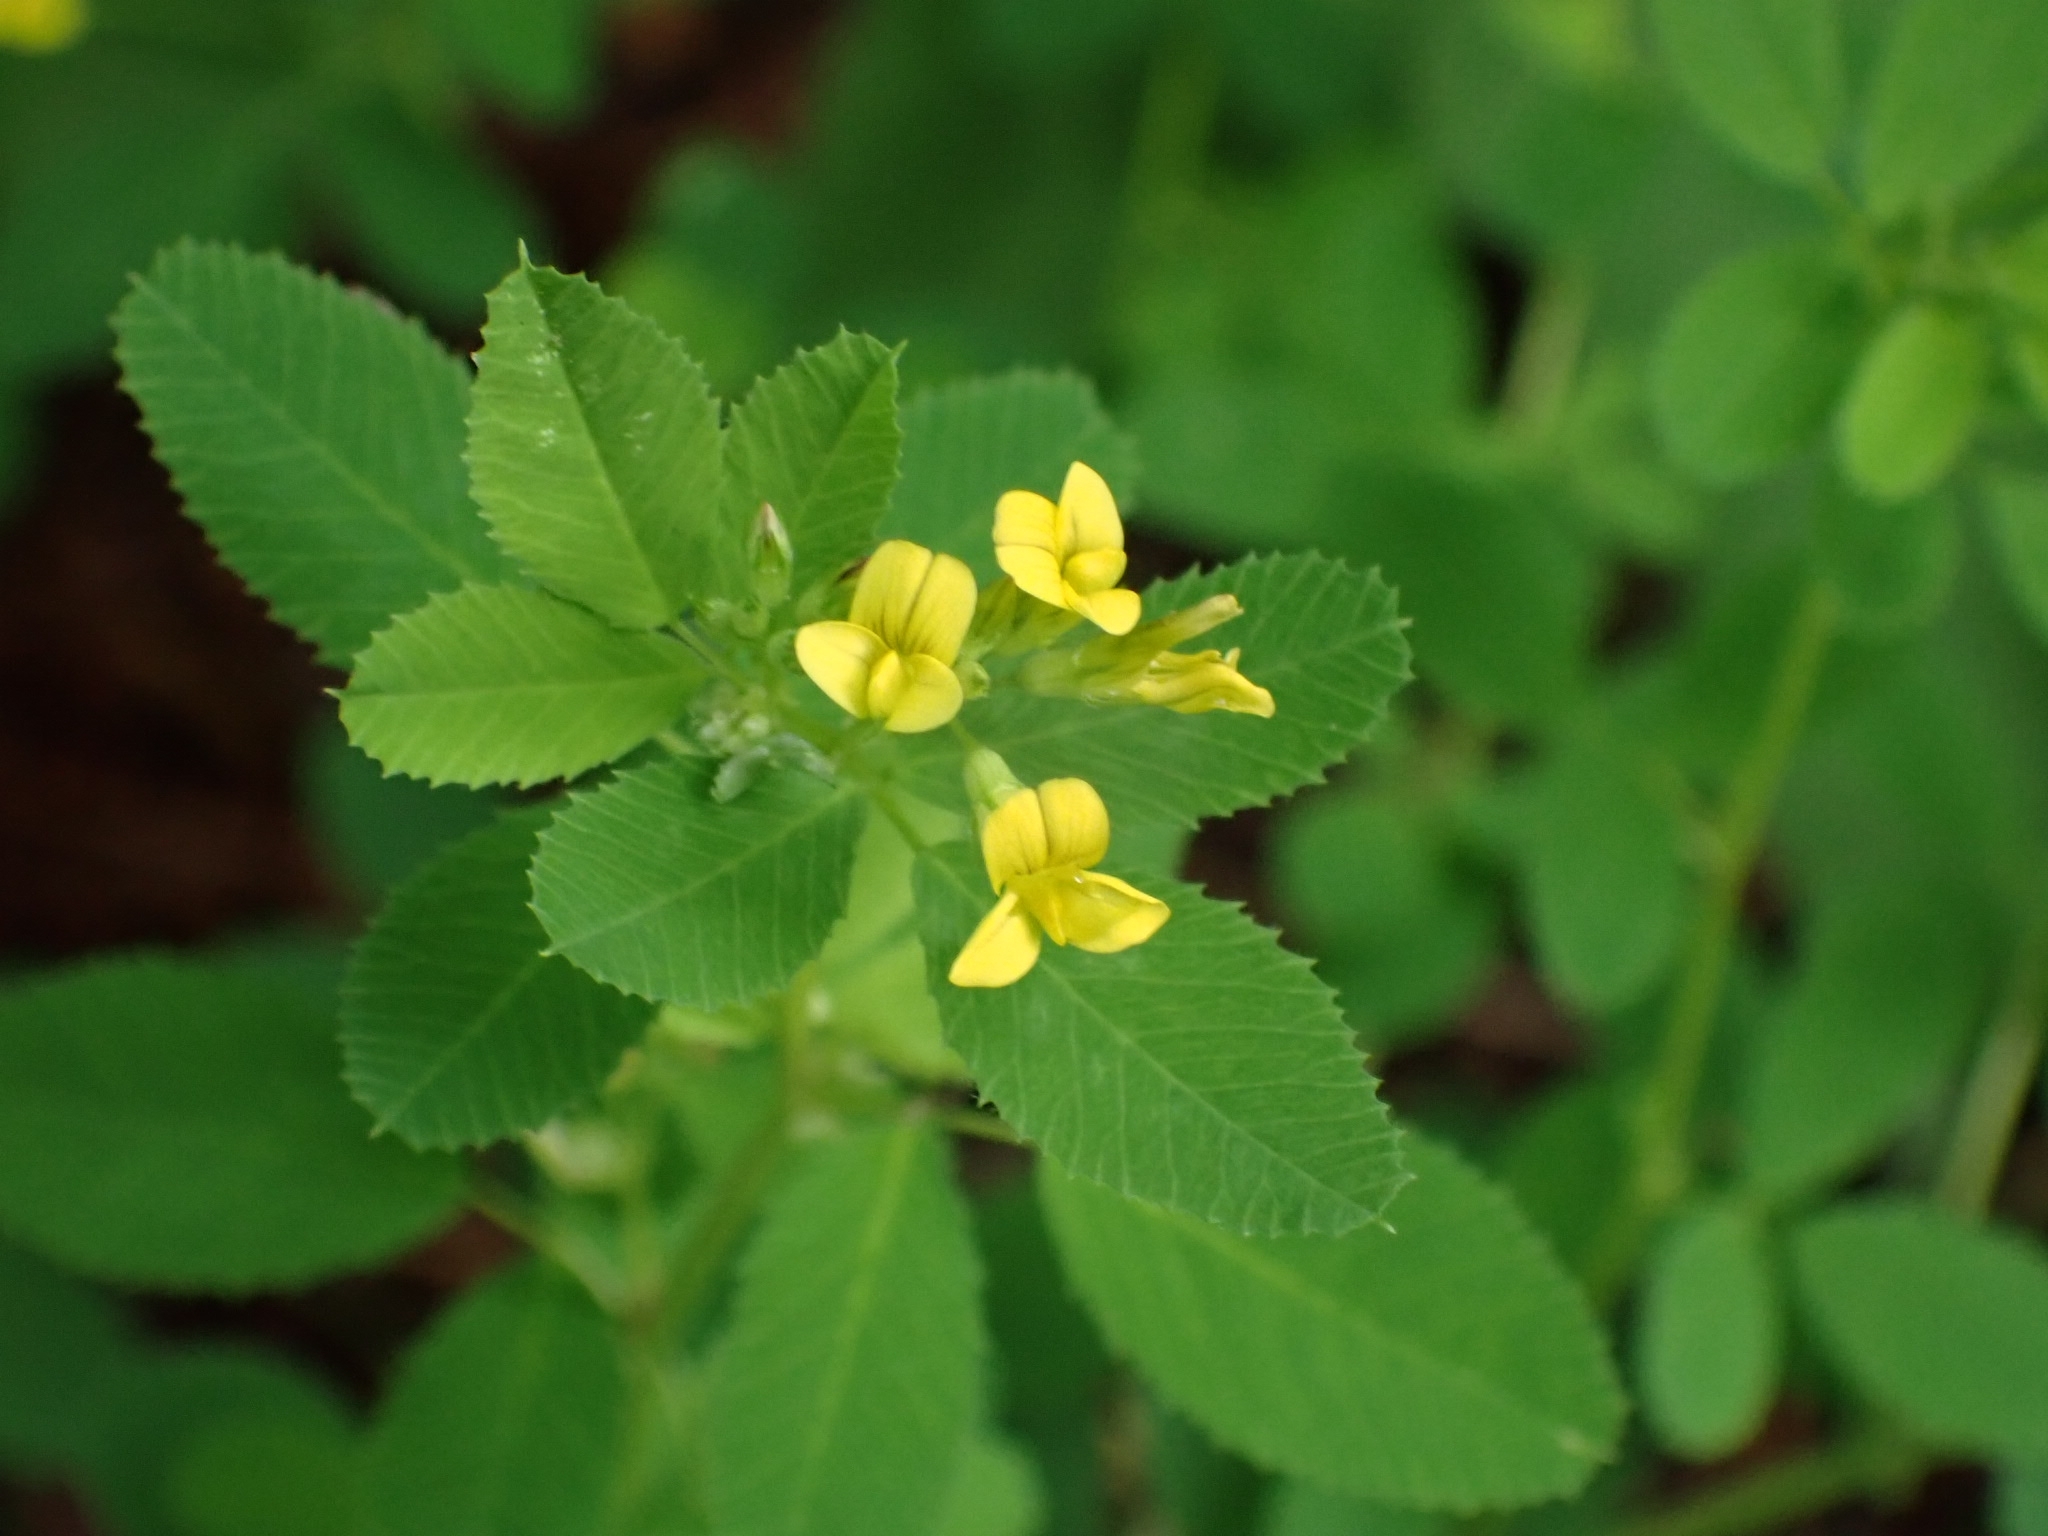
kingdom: Plantae
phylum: Tracheophyta
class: Magnoliopsida
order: Fabales
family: Fabaceae
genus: Medicago
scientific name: Medicago platycarpos
